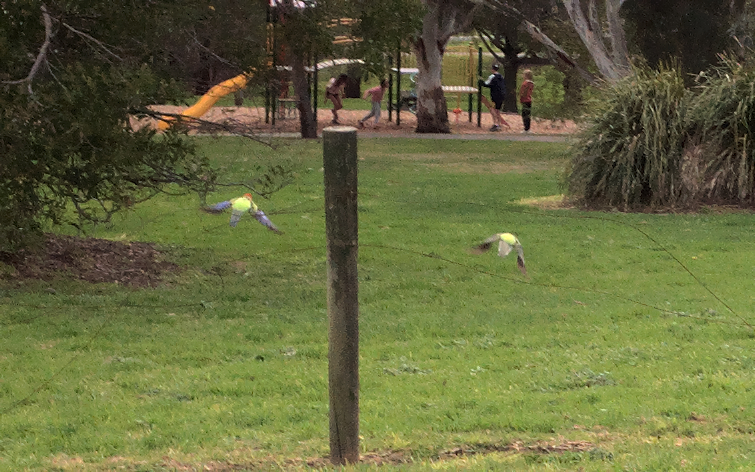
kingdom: Animalia
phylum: Chordata
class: Aves
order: Psittaciformes
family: Psittacidae
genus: Platycercus
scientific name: Platycercus eximius
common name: Eastern rosella
